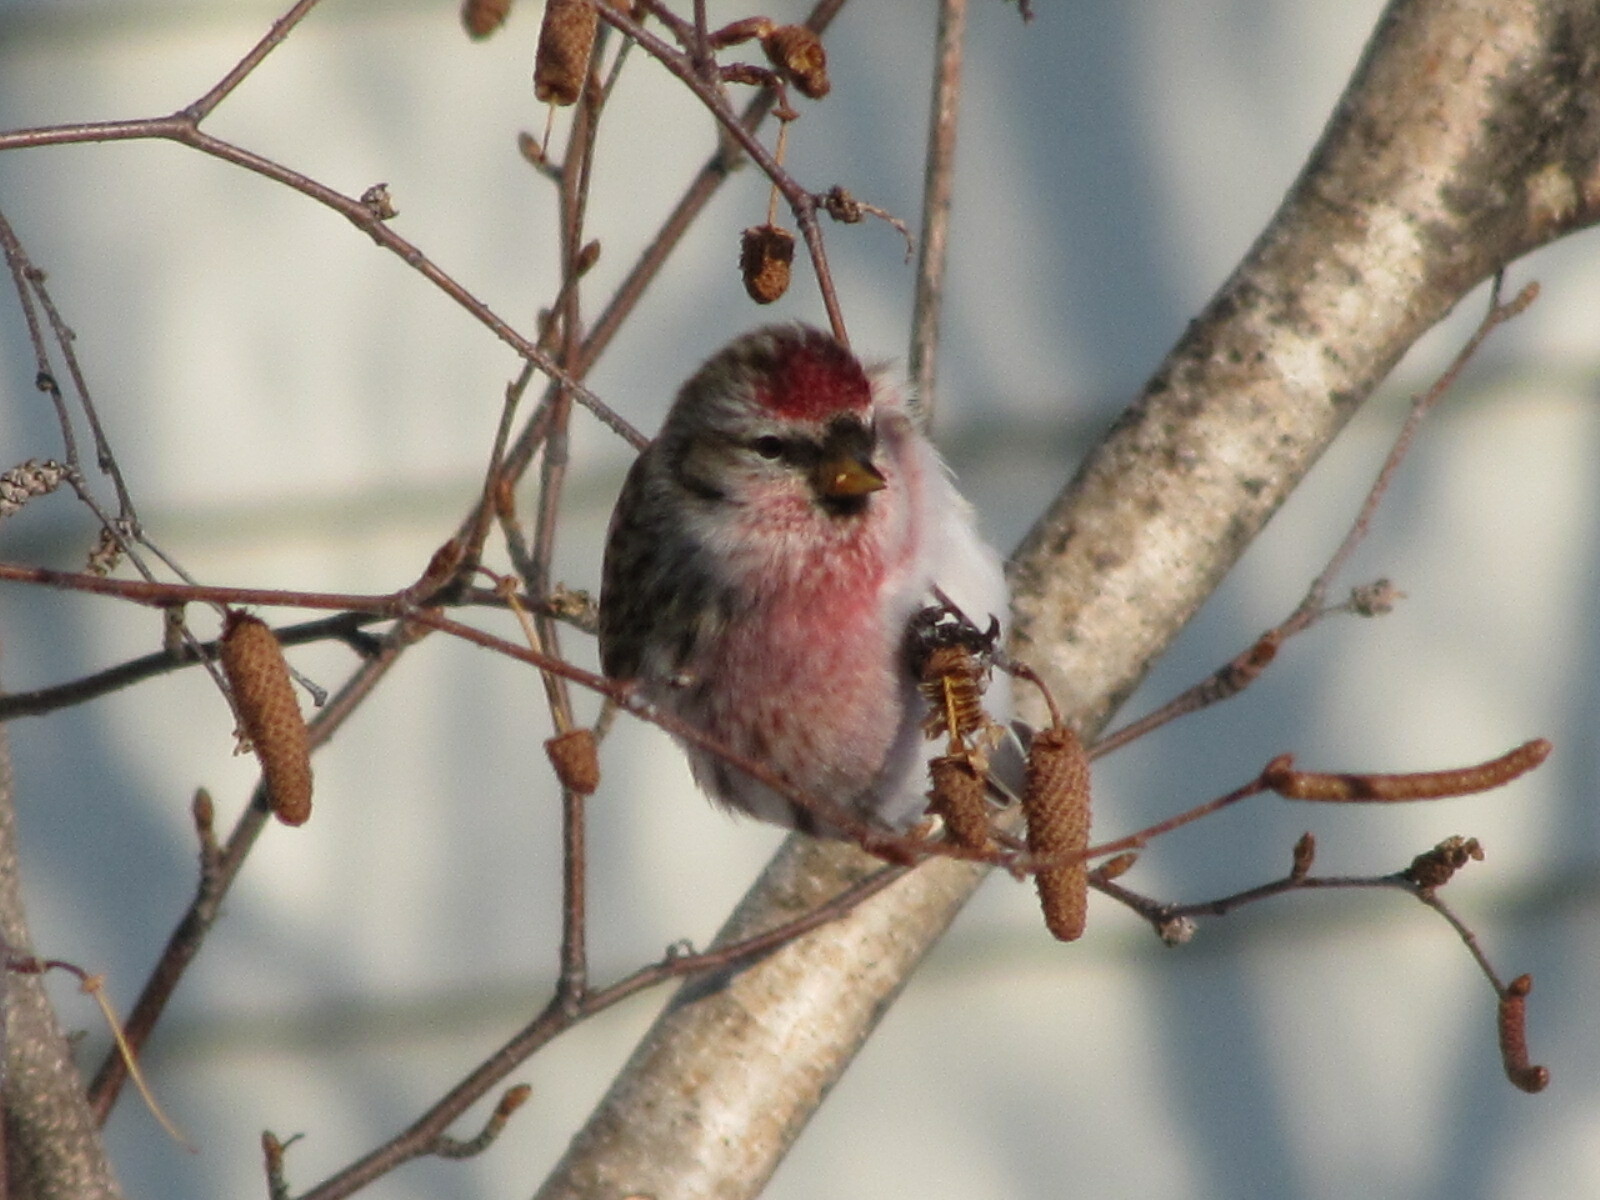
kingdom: Animalia
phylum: Chordata
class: Aves
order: Passeriformes
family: Fringillidae
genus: Acanthis
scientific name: Acanthis flammea
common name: Common redpoll
